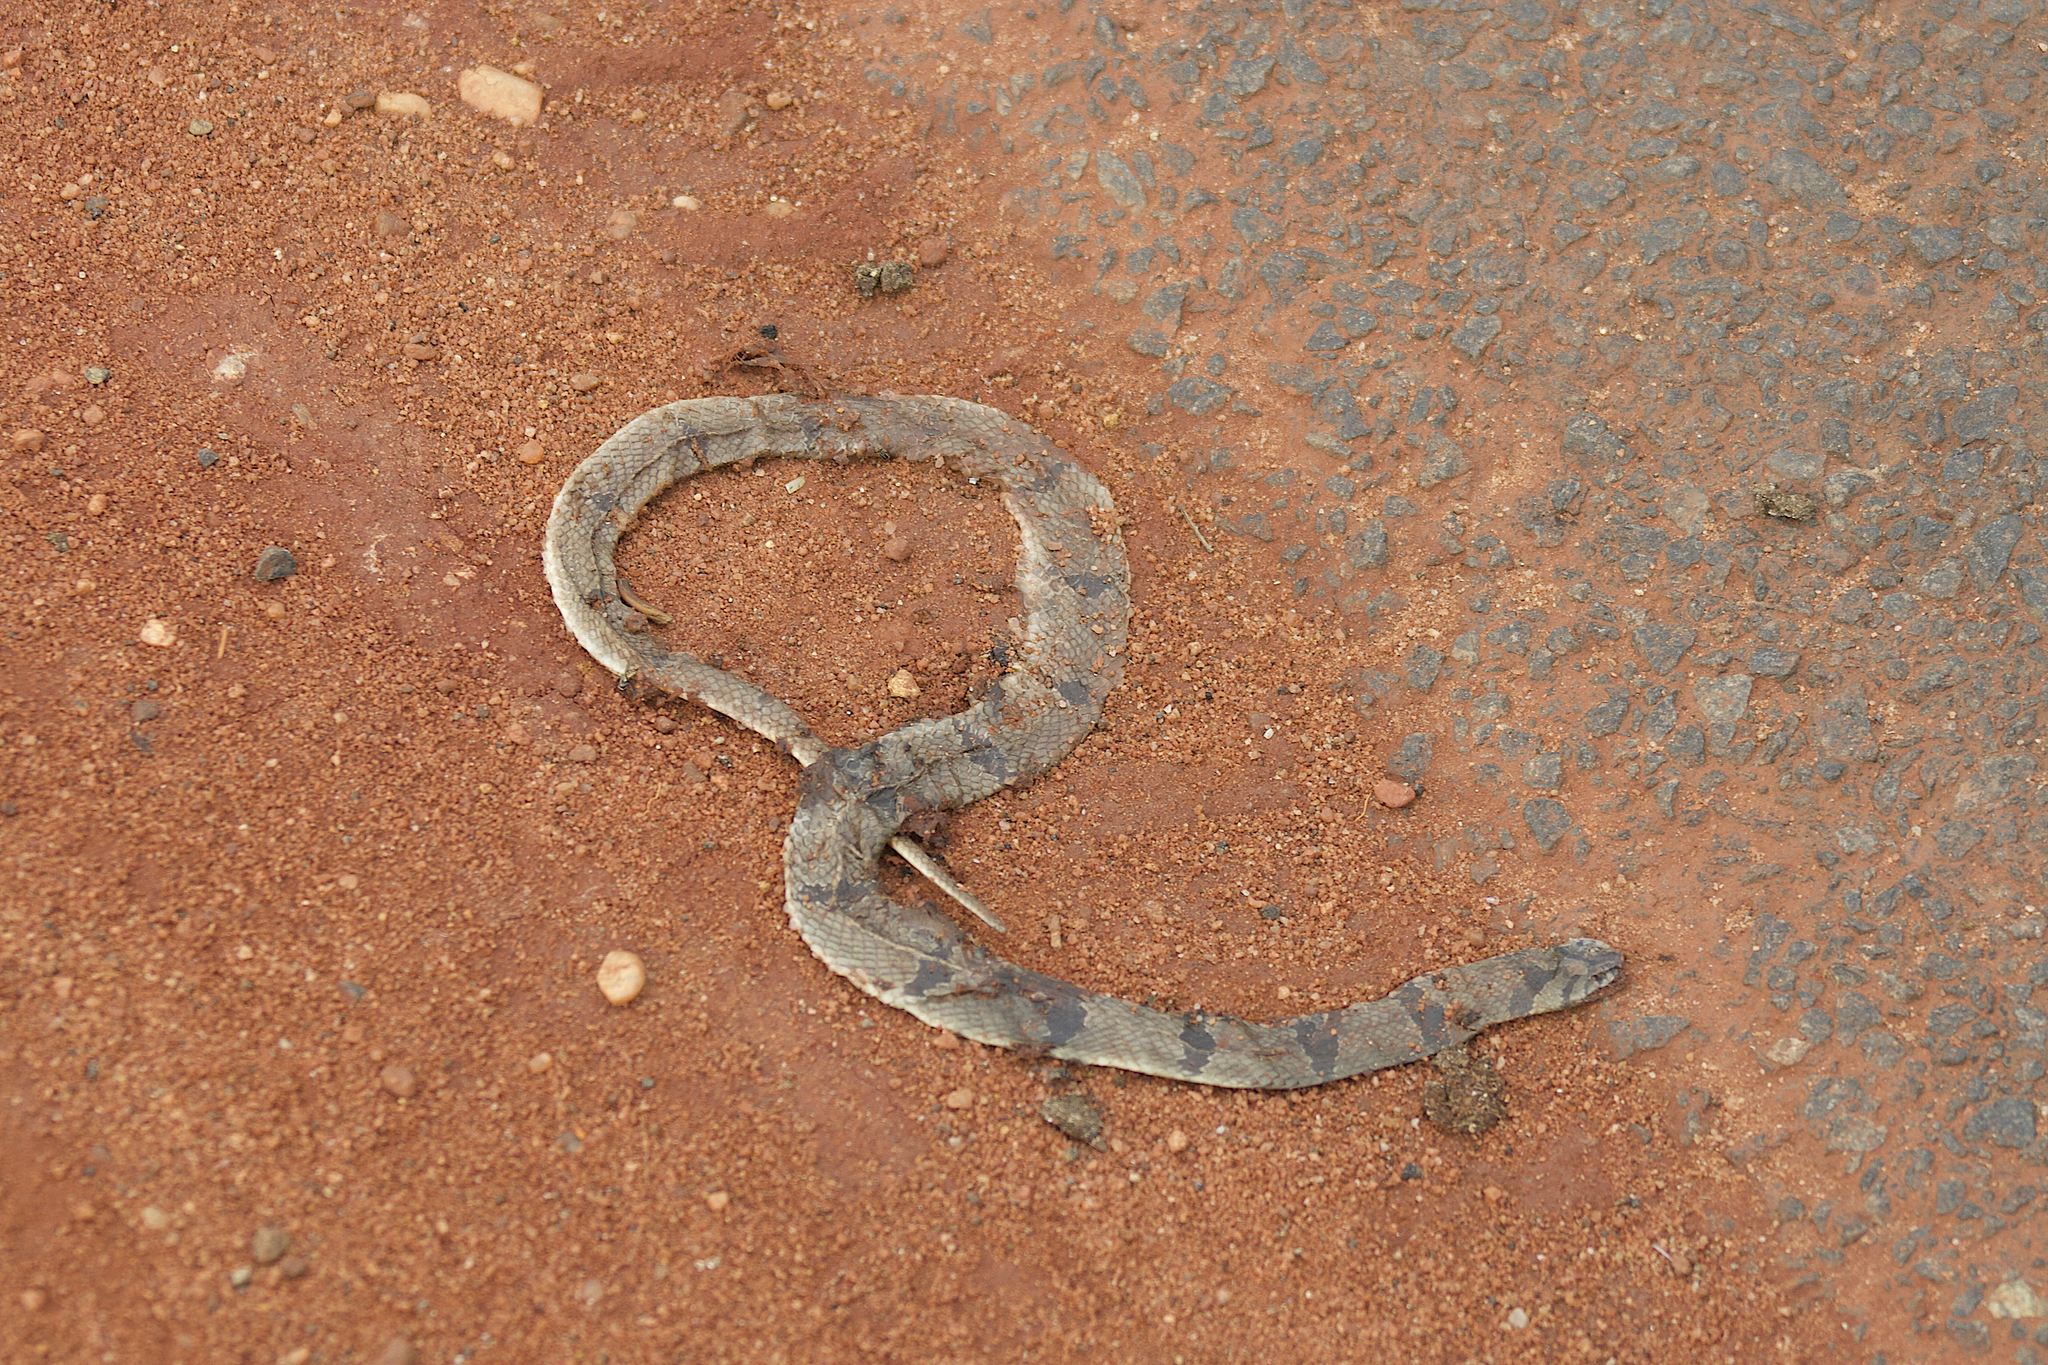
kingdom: Animalia
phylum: Chordata
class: Squamata
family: Colubridae
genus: Oligodon
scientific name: Oligodon arnensis
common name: Banded kukri
